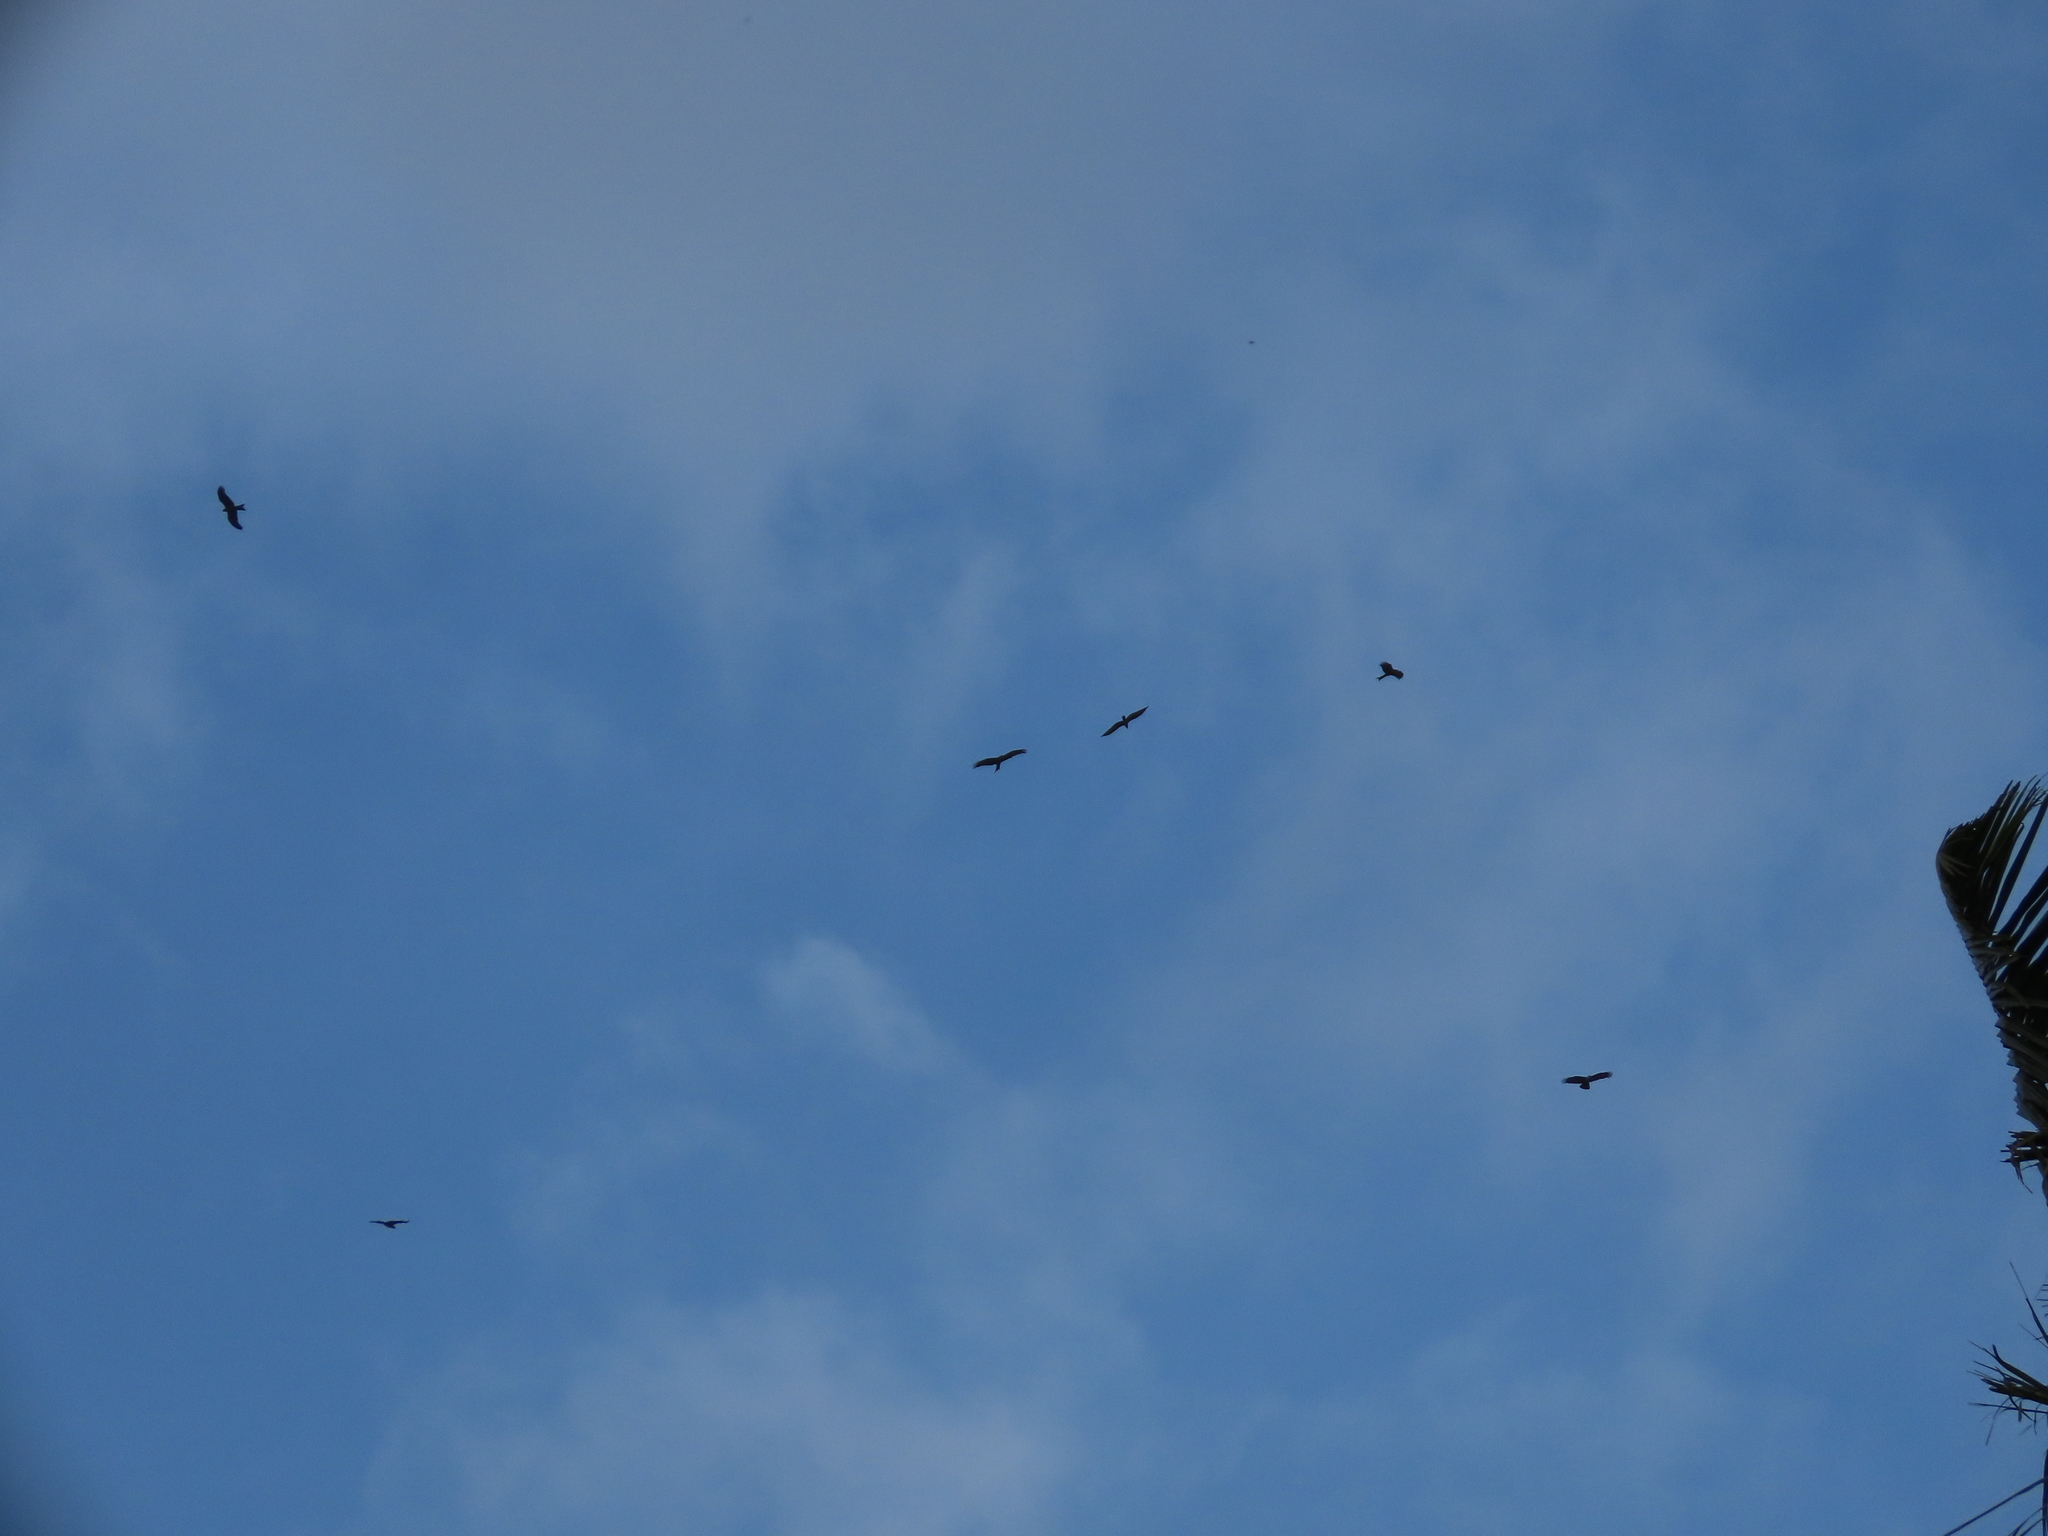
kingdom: Animalia
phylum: Chordata
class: Aves
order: Accipitriformes
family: Accipitridae
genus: Milvus
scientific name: Milvus migrans
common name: Black kite
